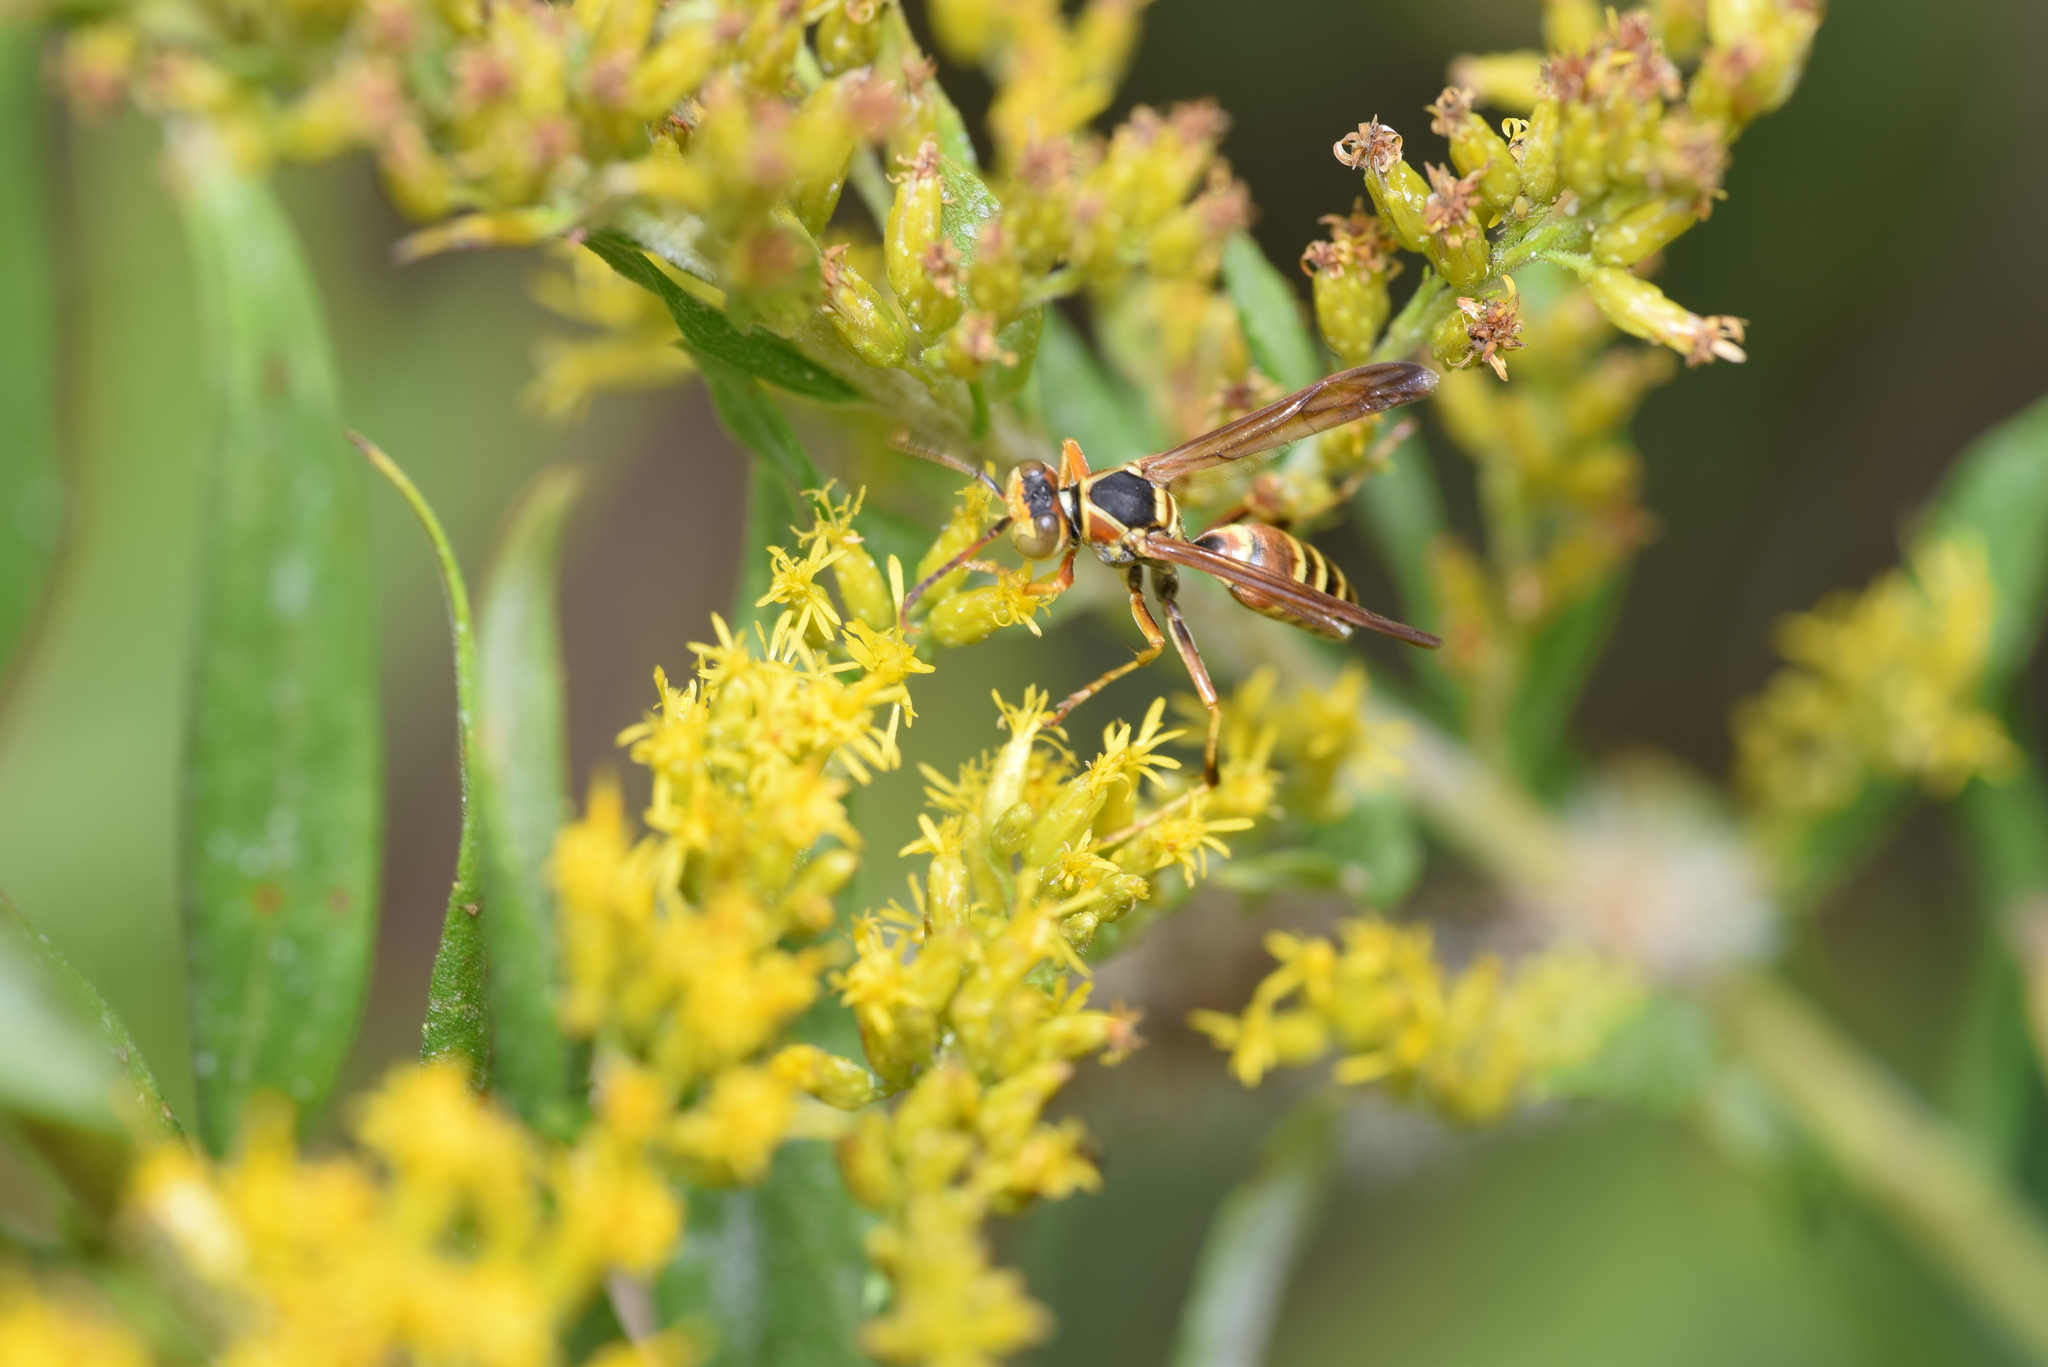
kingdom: Animalia
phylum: Arthropoda
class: Insecta
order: Hymenoptera
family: Eumenidae
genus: Polistes
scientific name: Polistes dorsalis
